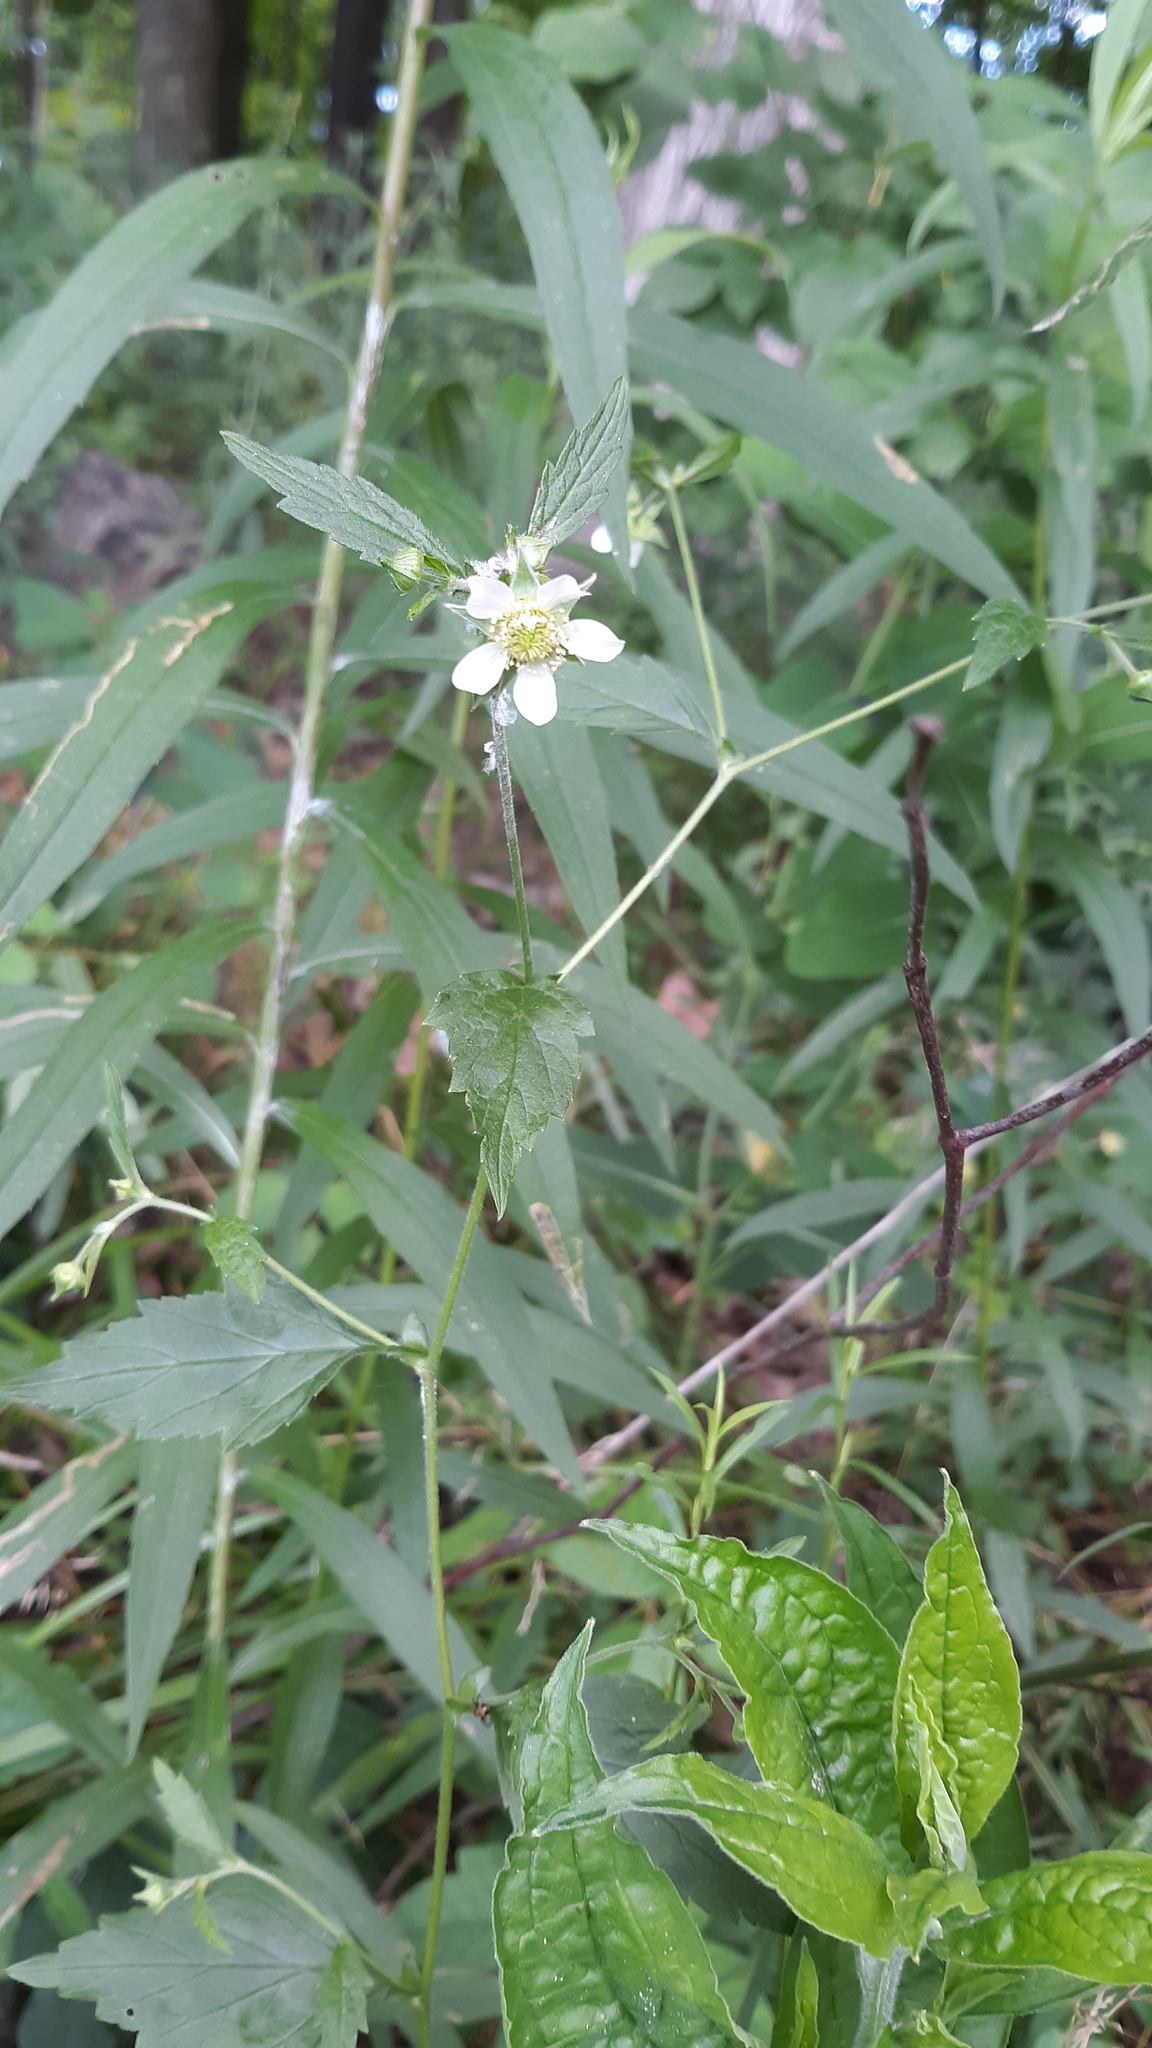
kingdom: Plantae
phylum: Tracheophyta
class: Magnoliopsida
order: Rosales
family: Rosaceae
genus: Geum
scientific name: Geum canadense
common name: White avens
